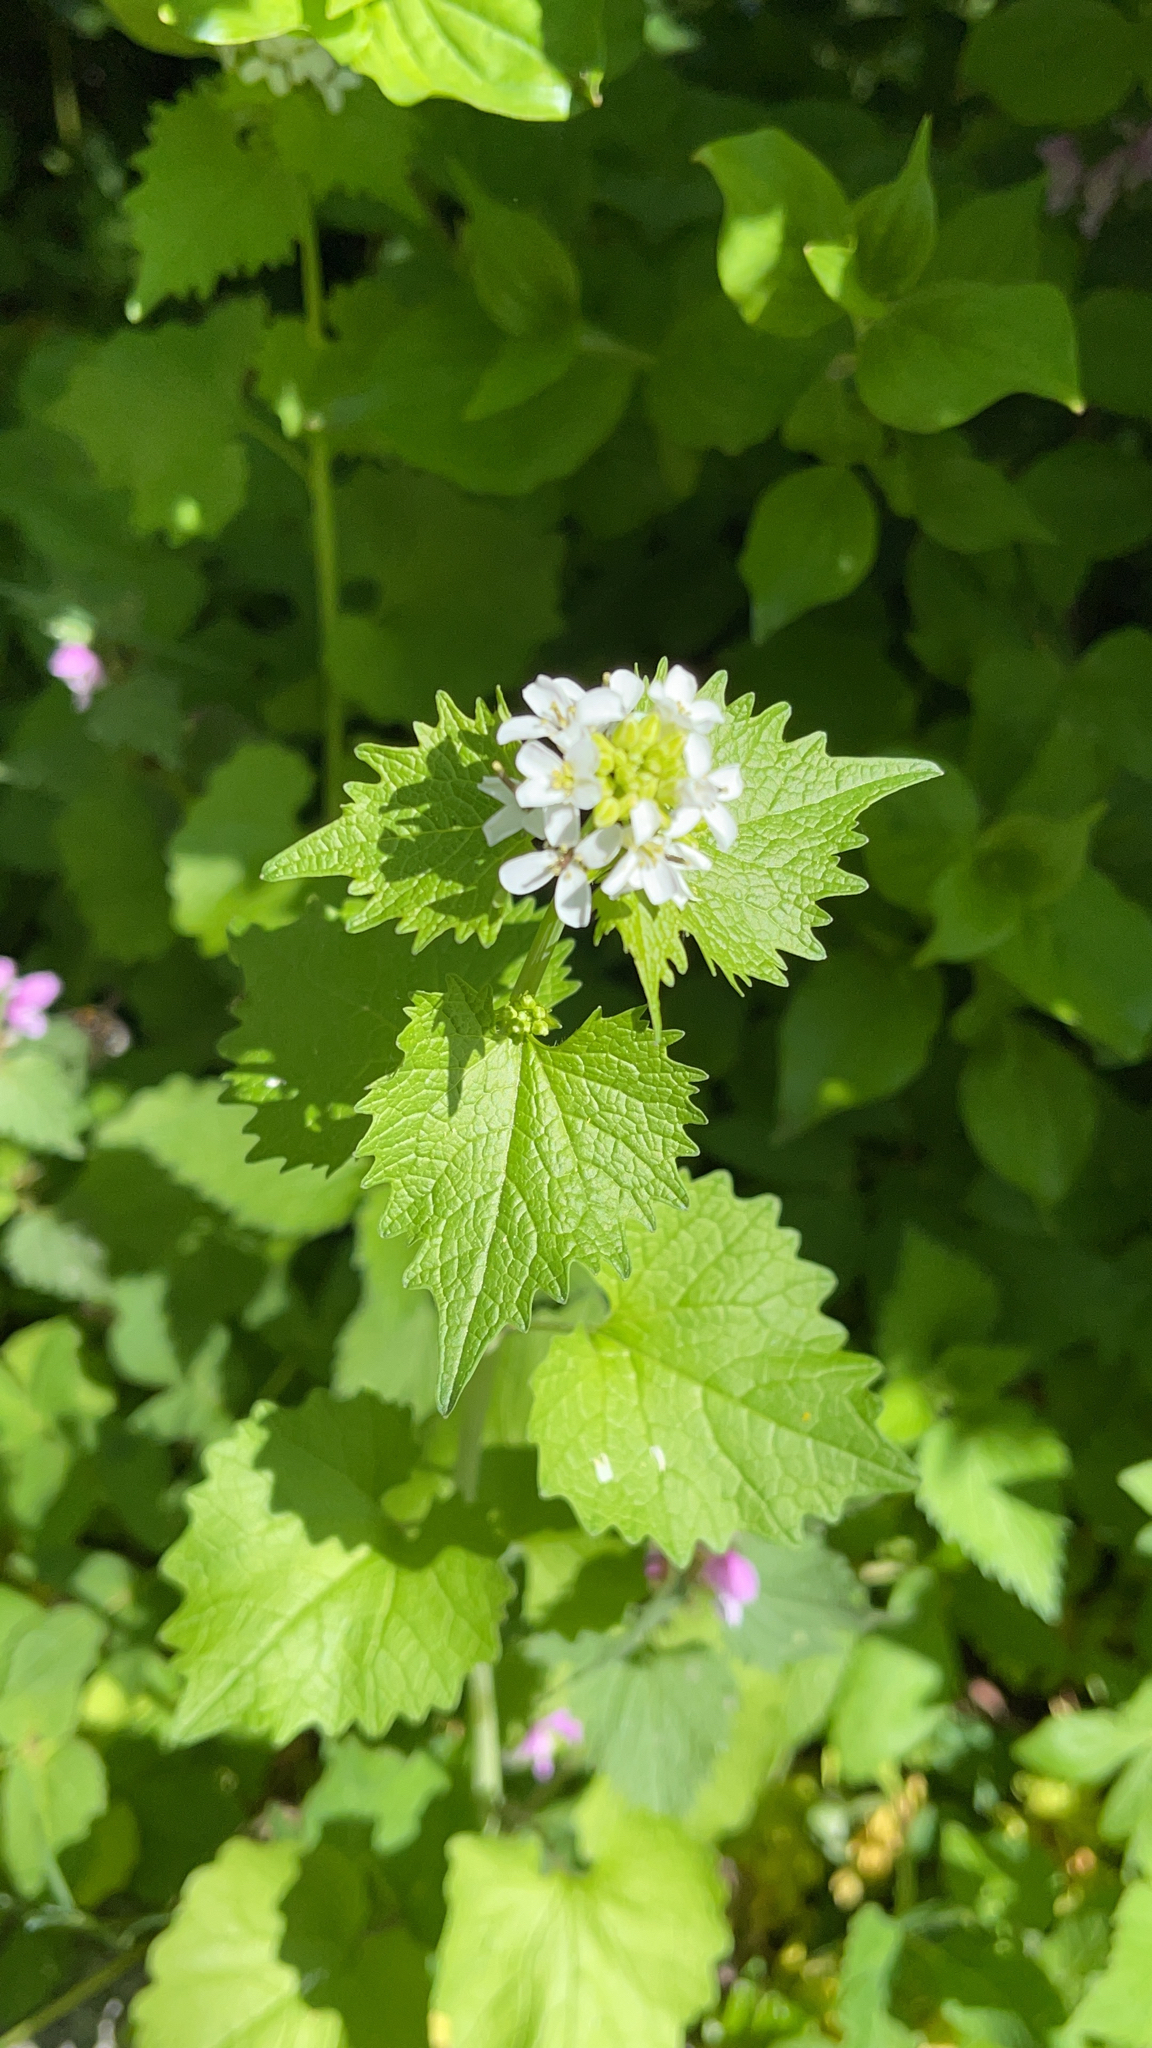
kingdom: Plantae
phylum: Tracheophyta
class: Magnoliopsida
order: Brassicales
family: Brassicaceae
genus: Alliaria
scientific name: Alliaria petiolata
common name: Garlic mustard
